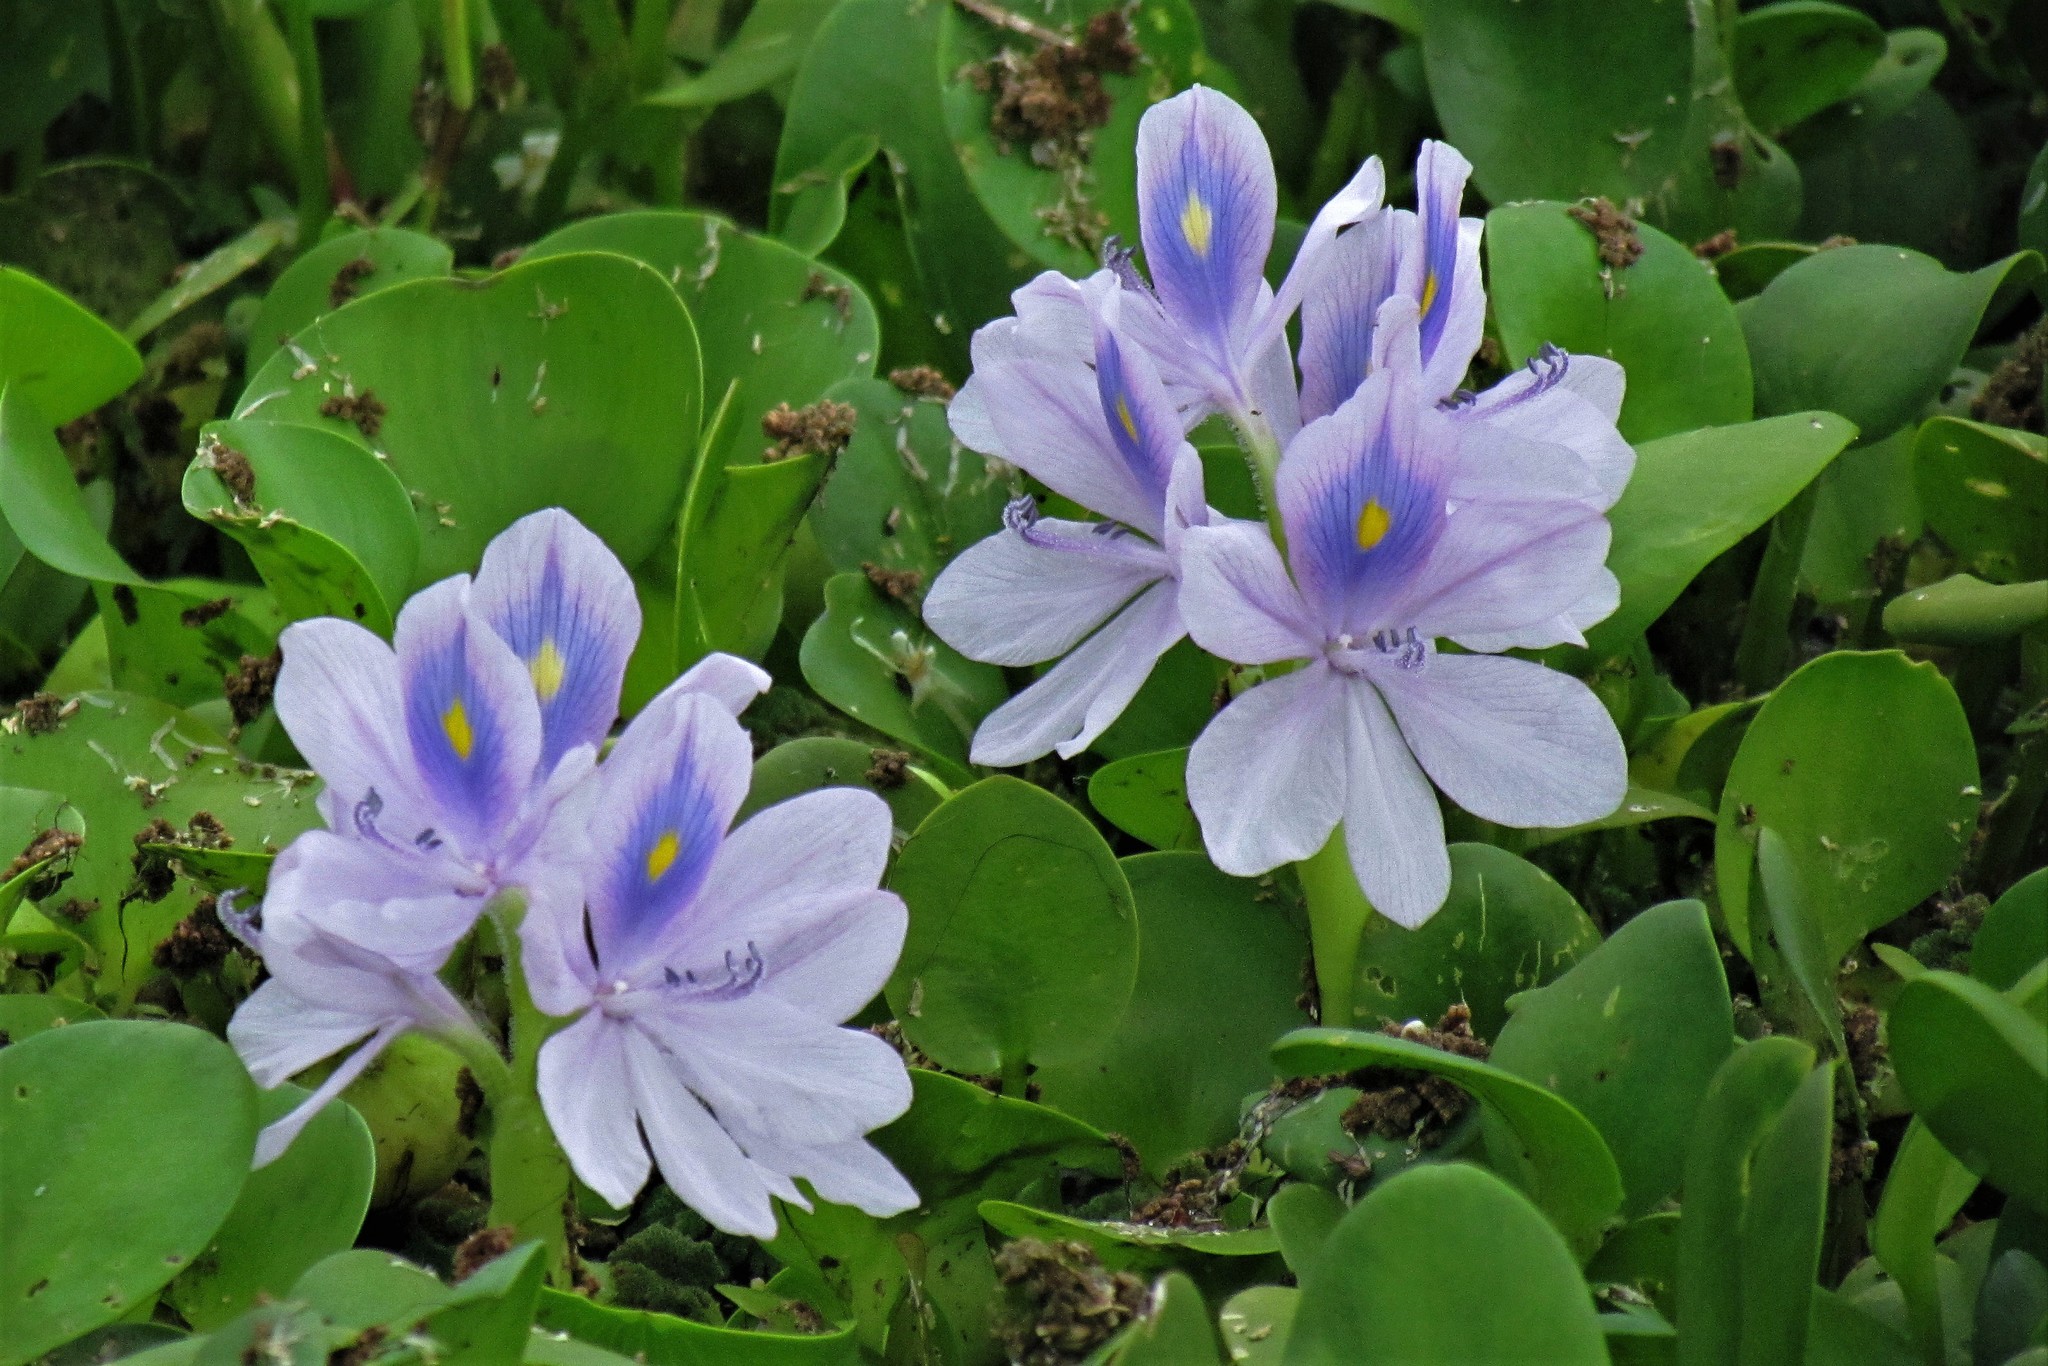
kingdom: Plantae
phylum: Tracheophyta
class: Liliopsida
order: Commelinales
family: Pontederiaceae
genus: Pontederia
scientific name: Pontederia crassipes
